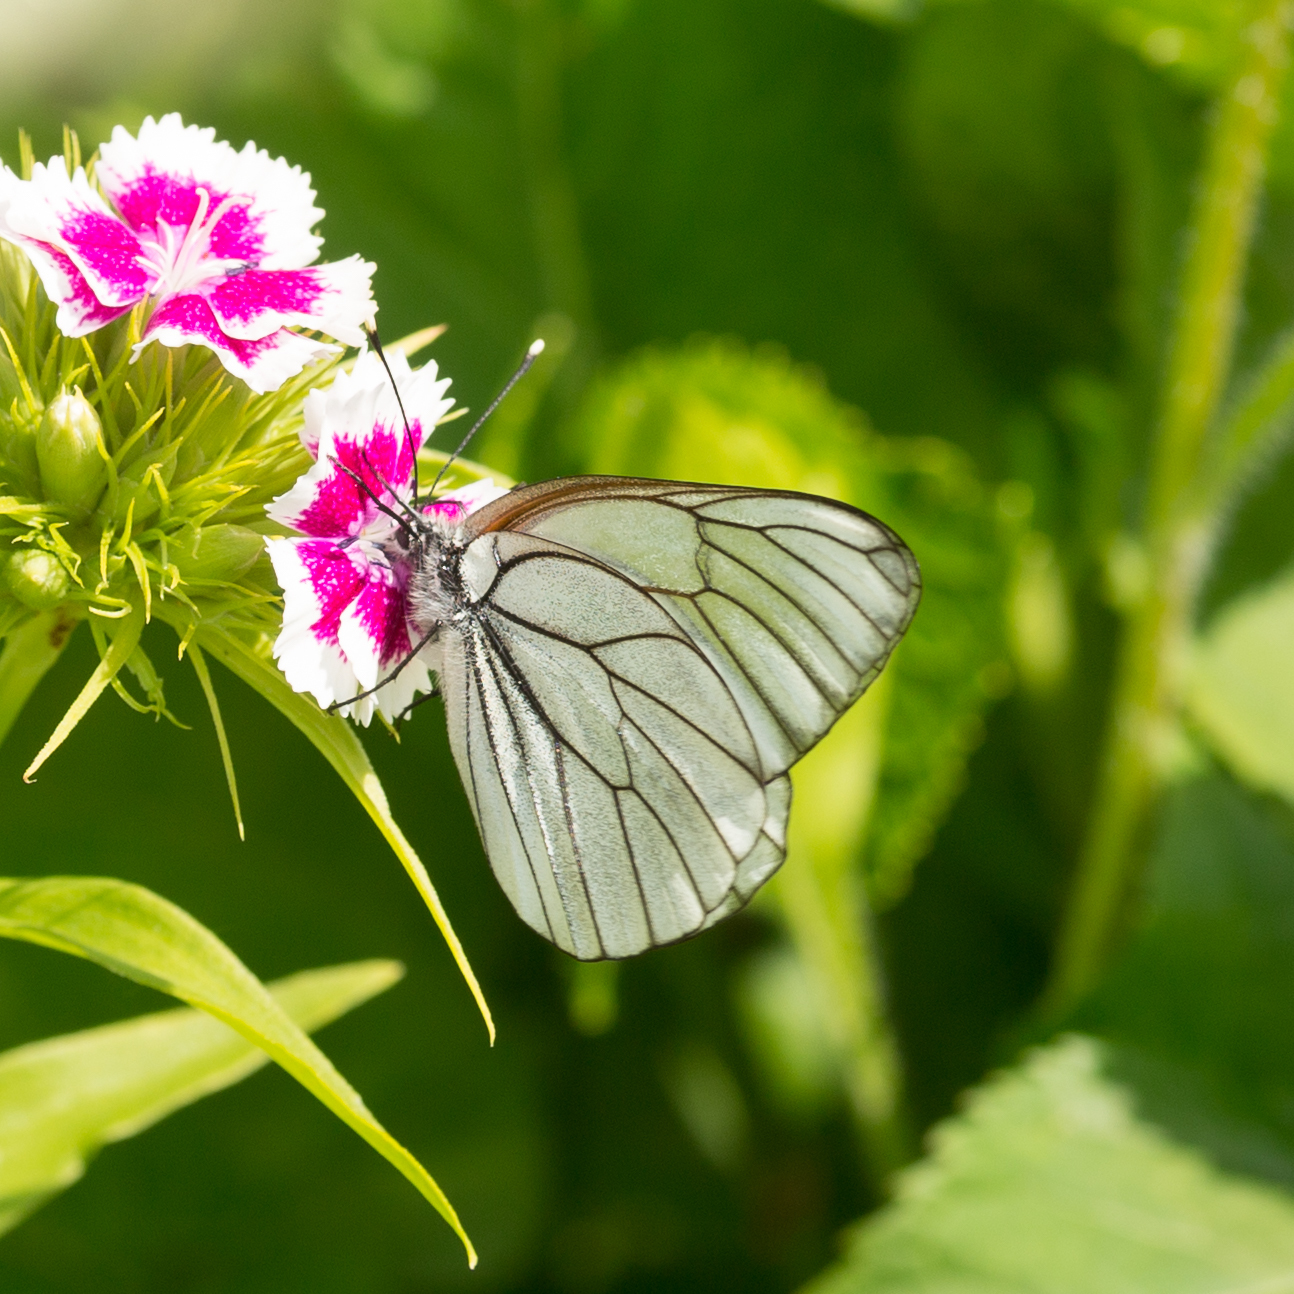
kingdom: Animalia
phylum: Arthropoda
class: Insecta
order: Lepidoptera
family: Pieridae
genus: Aporia
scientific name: Aporia crataegi
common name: Black-veined white
